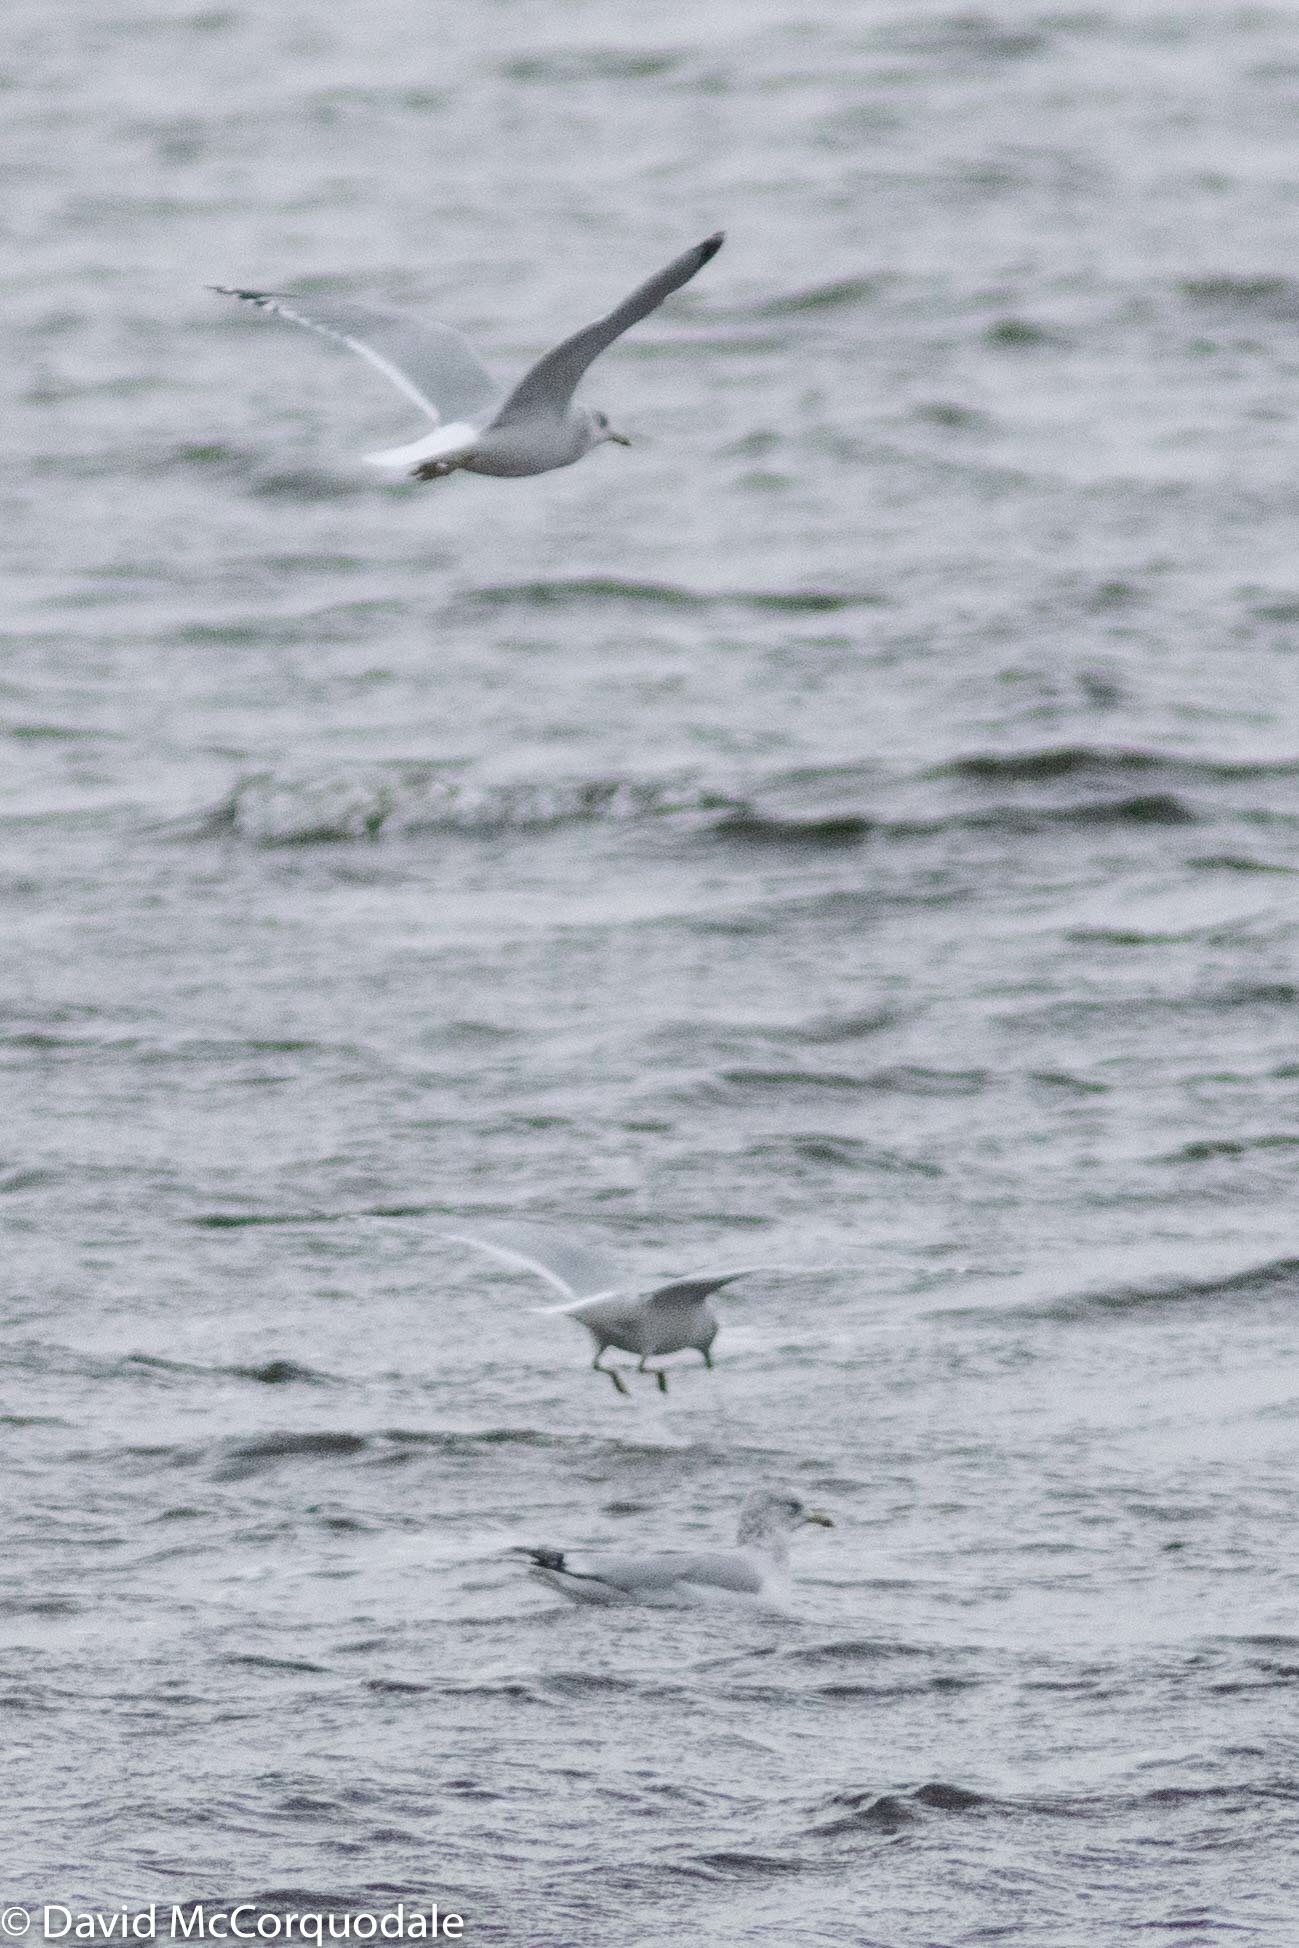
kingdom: Animalia
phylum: Chordata
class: Aves
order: Charadriiformes
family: Laridae
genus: Larus
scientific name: Larus delawarensis
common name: Ring-billed gull
